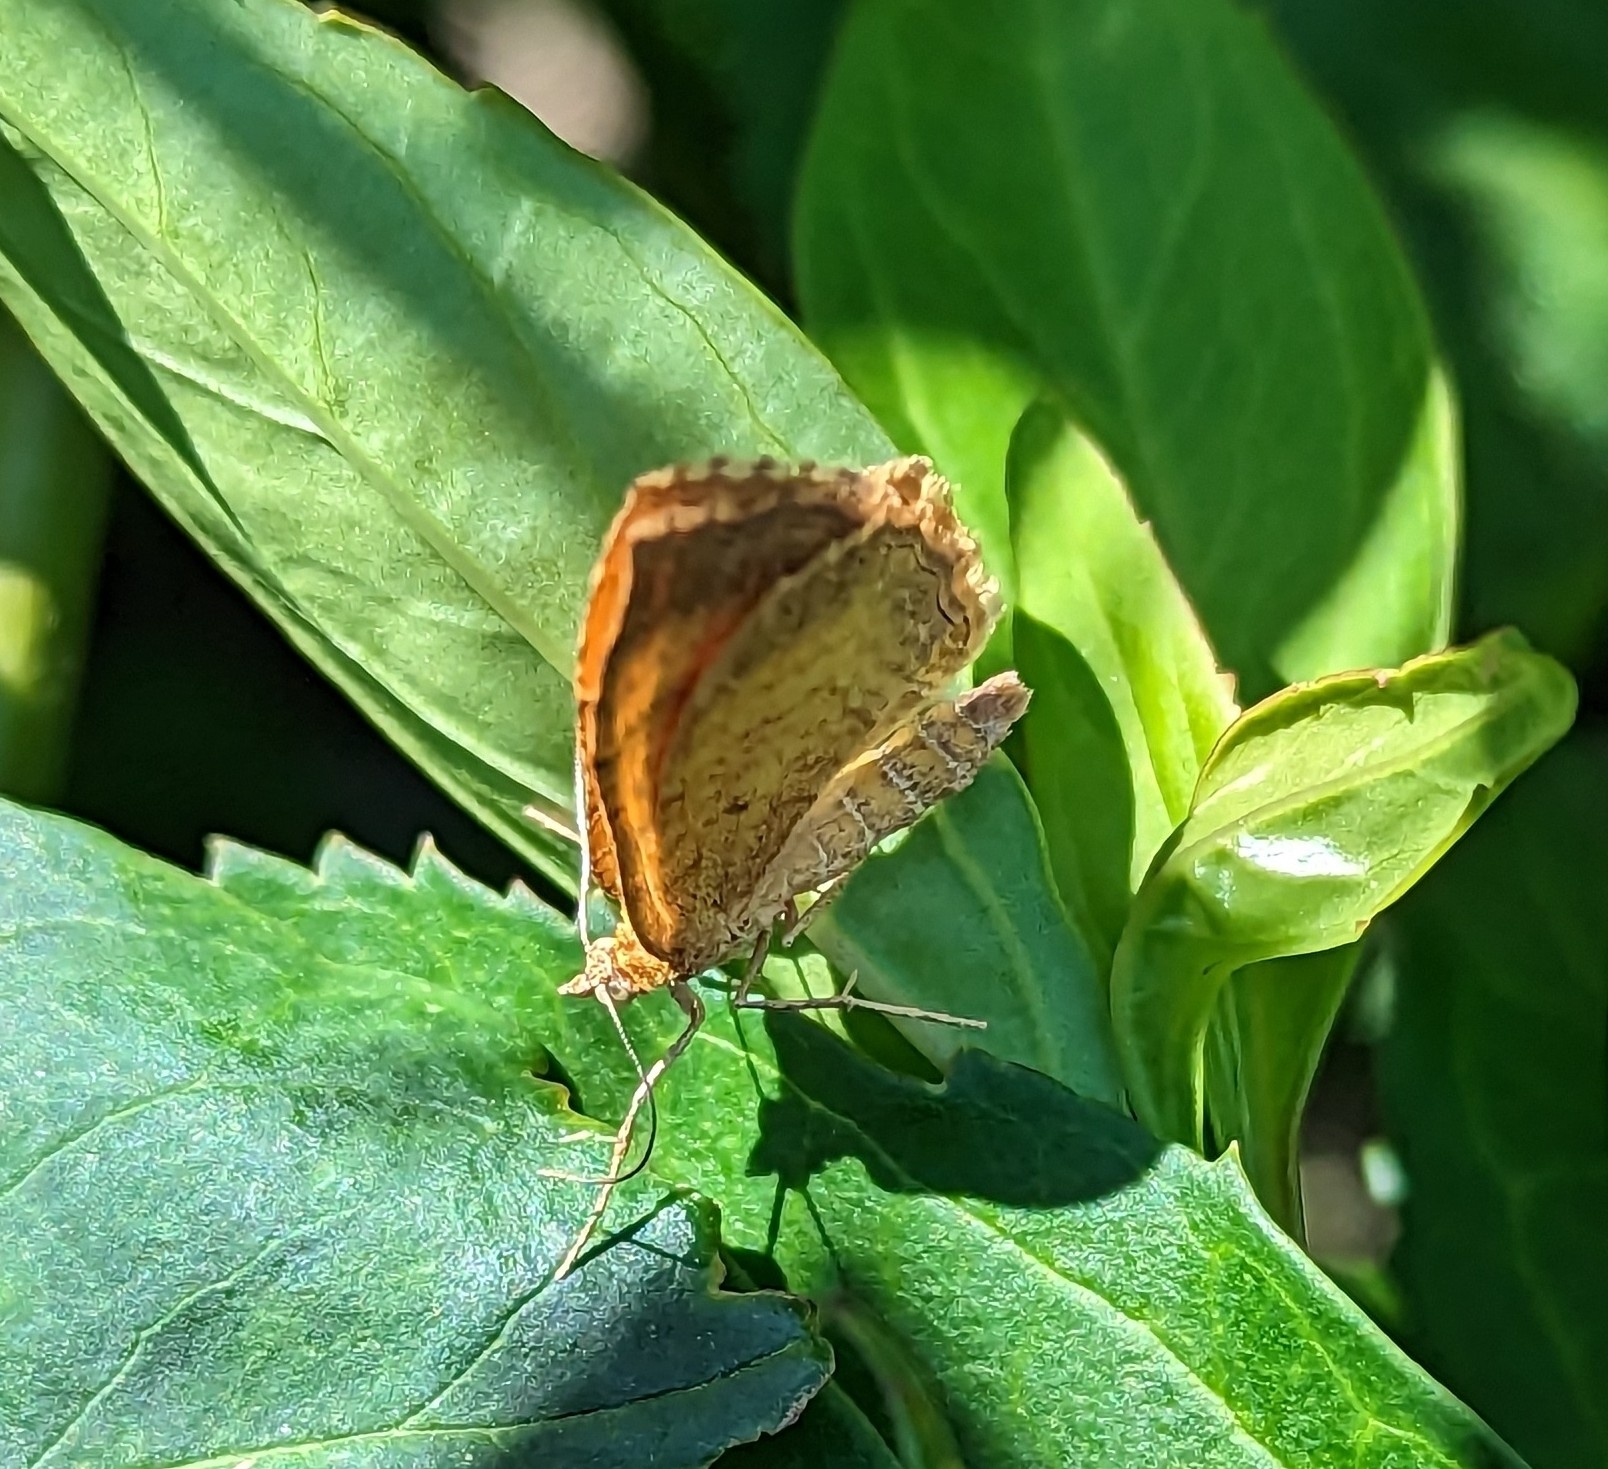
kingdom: Animalia
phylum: Arthropoda
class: Insecta
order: Lepidoptera
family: Geometridae
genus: Camptogramma
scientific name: Camptogramma bilineata
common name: Yellow shell
